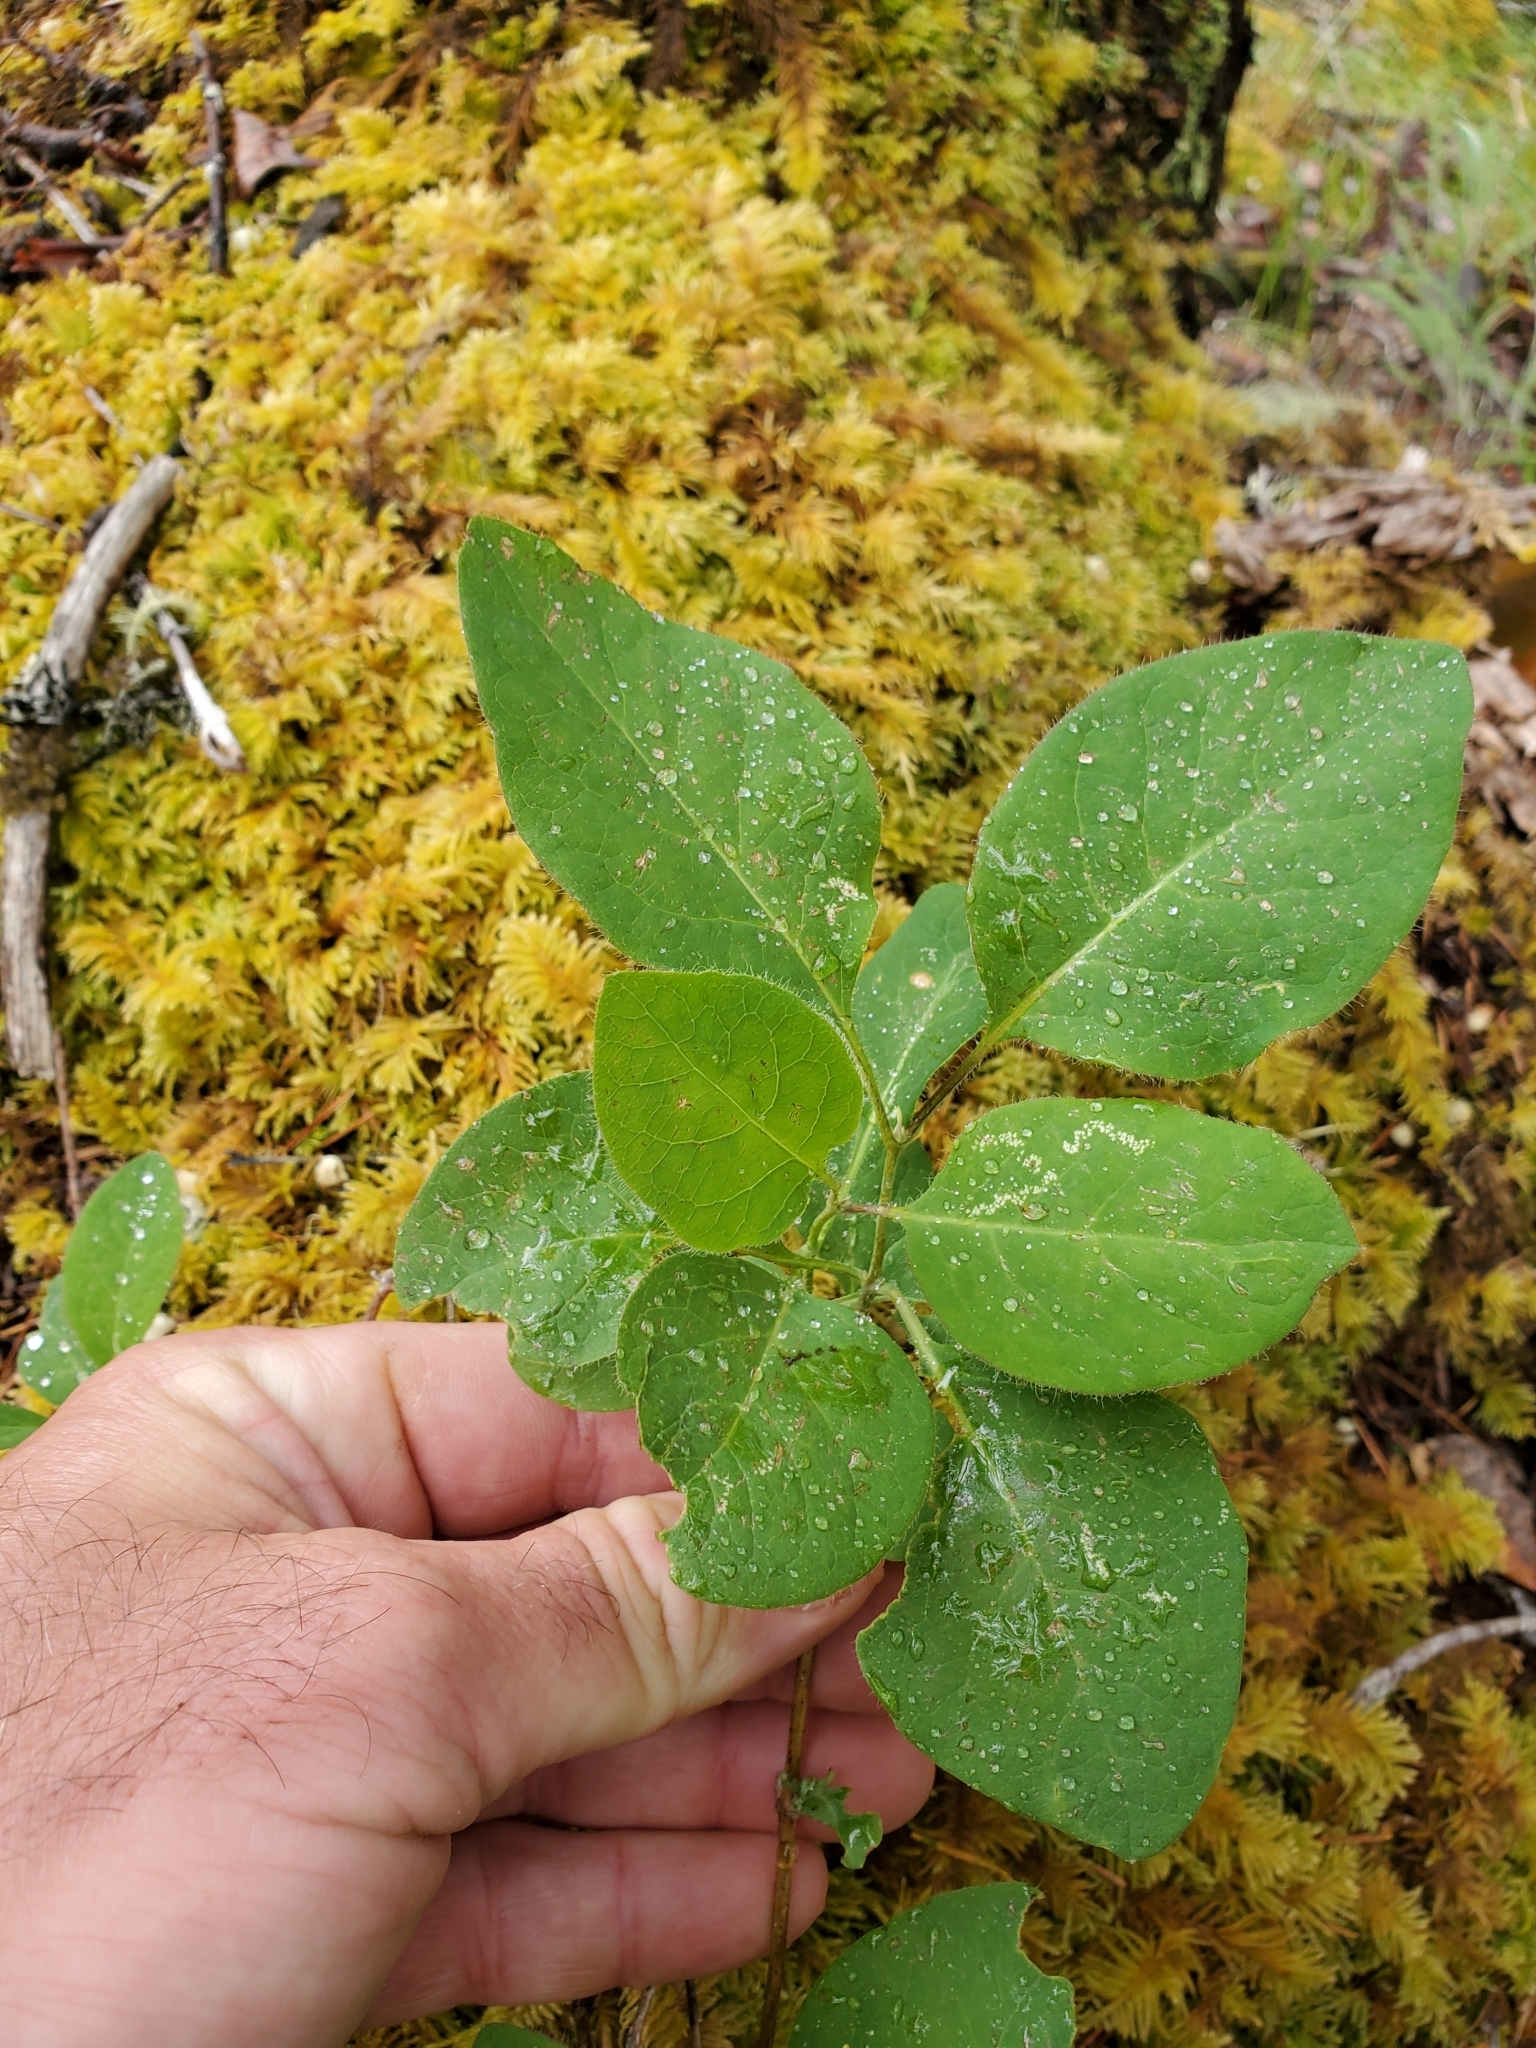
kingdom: Plantae
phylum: Tracheophyta
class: Magnoliopsida
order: Dipsacales
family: Caprifoliaceae
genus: Lonicera
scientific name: Lonicera ciliosa
